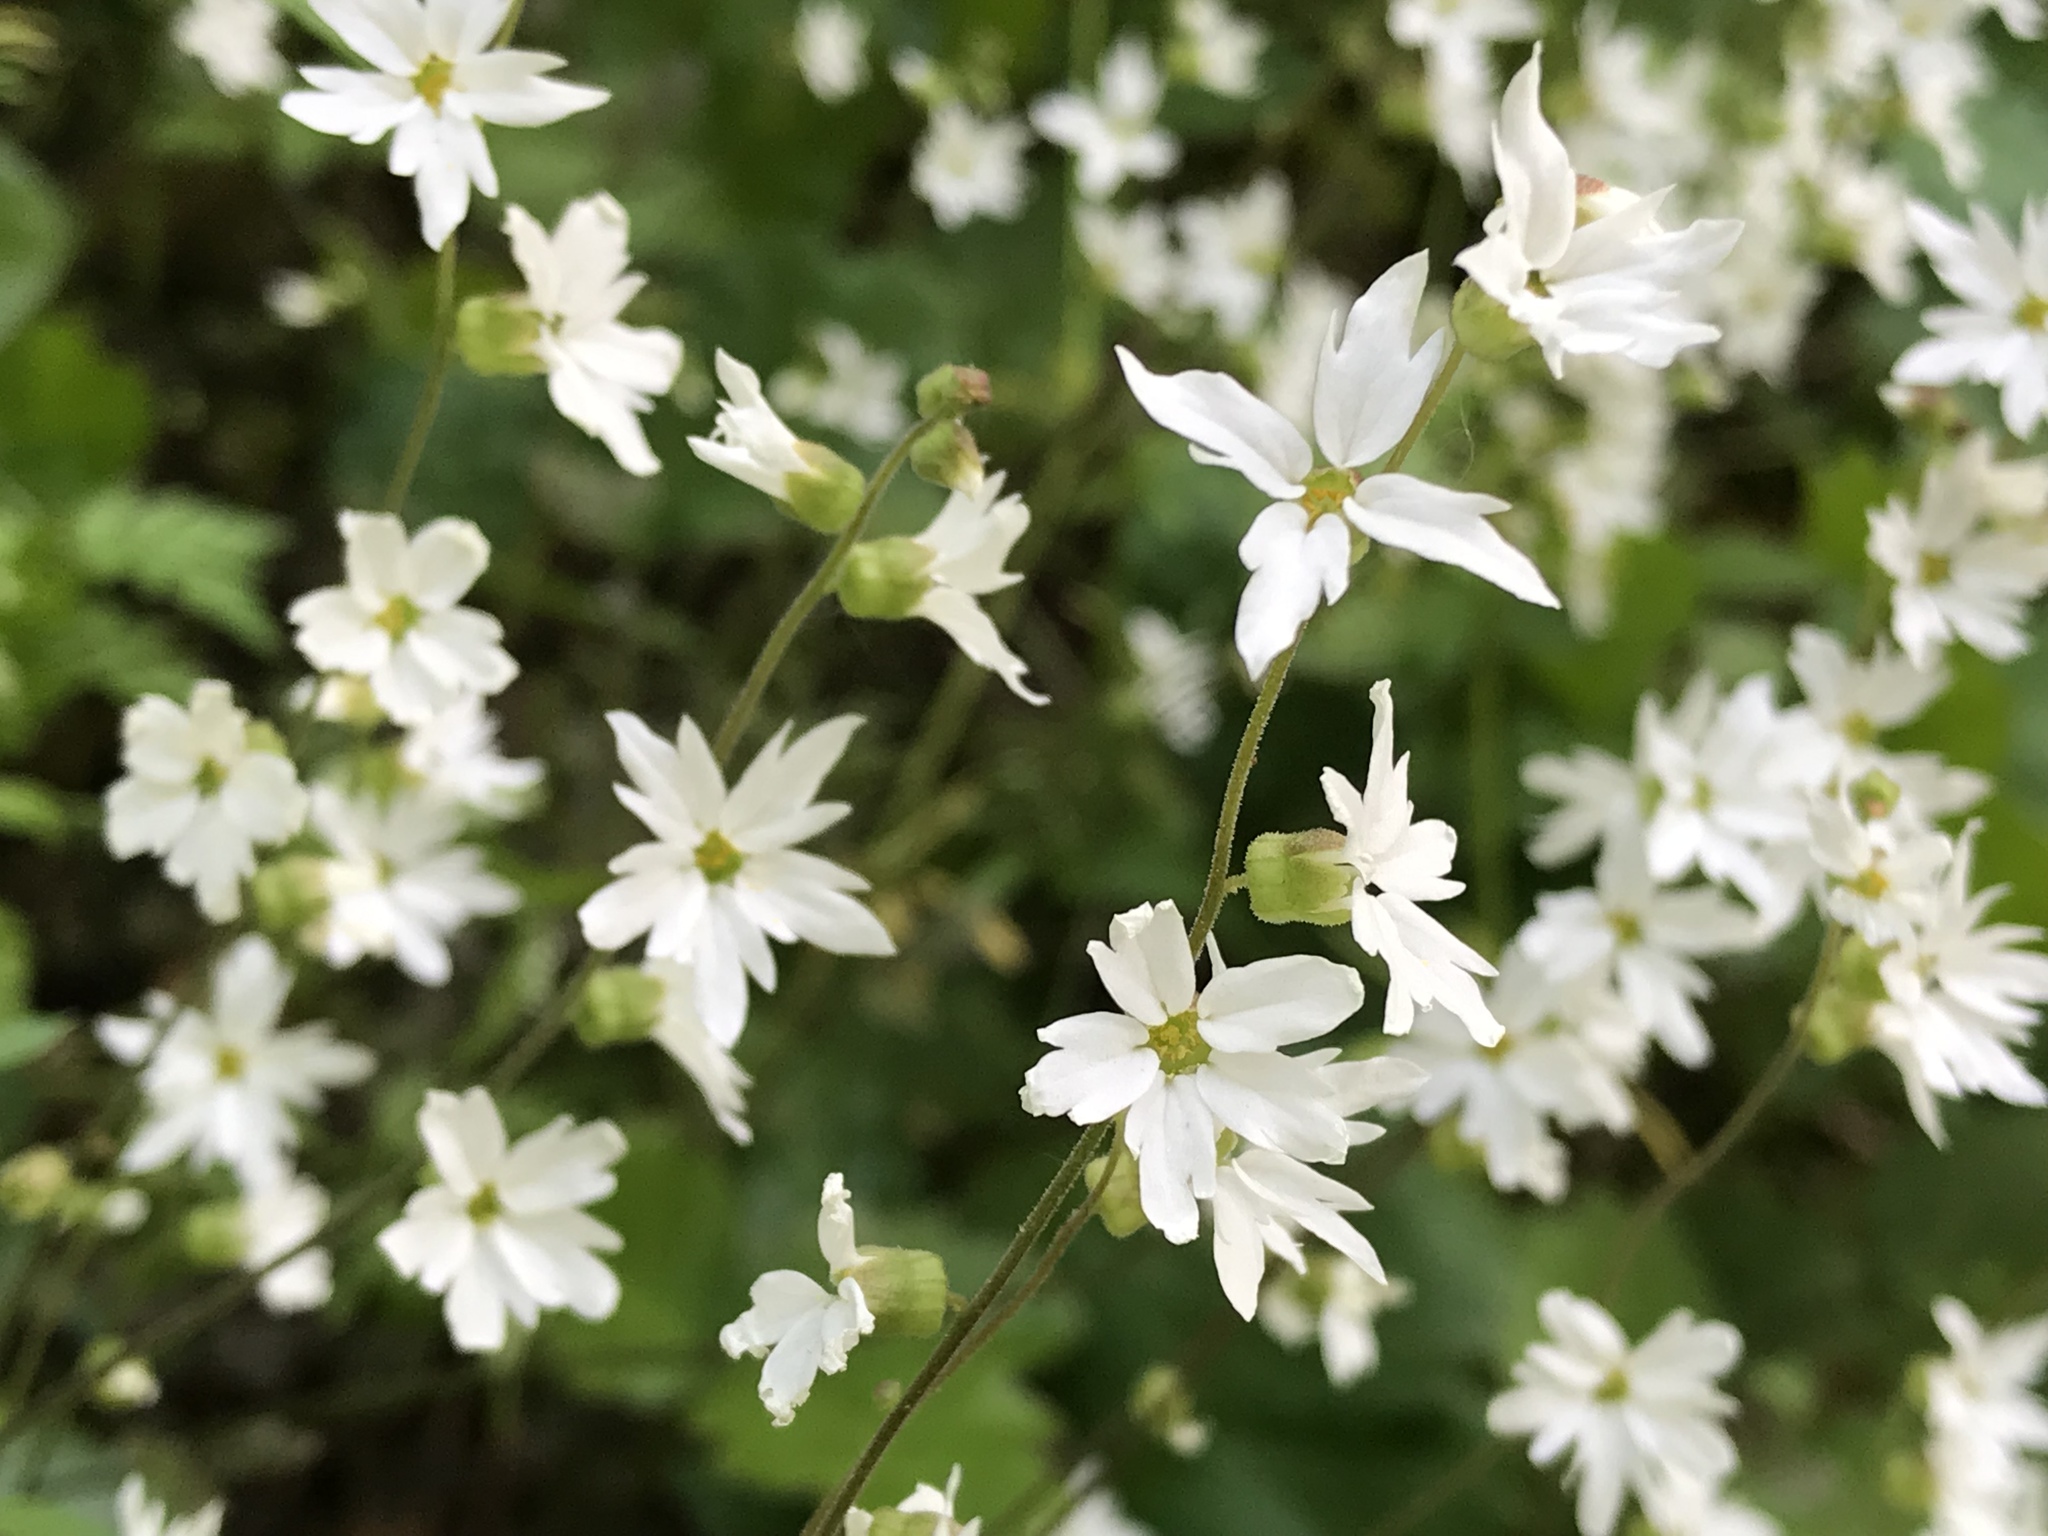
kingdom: Plantae
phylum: Tracheophyta
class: Magnoliopsida
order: Saxifragales
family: Saxifragaceae
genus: Lithophragma
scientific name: Lithophragma heterophyllum
